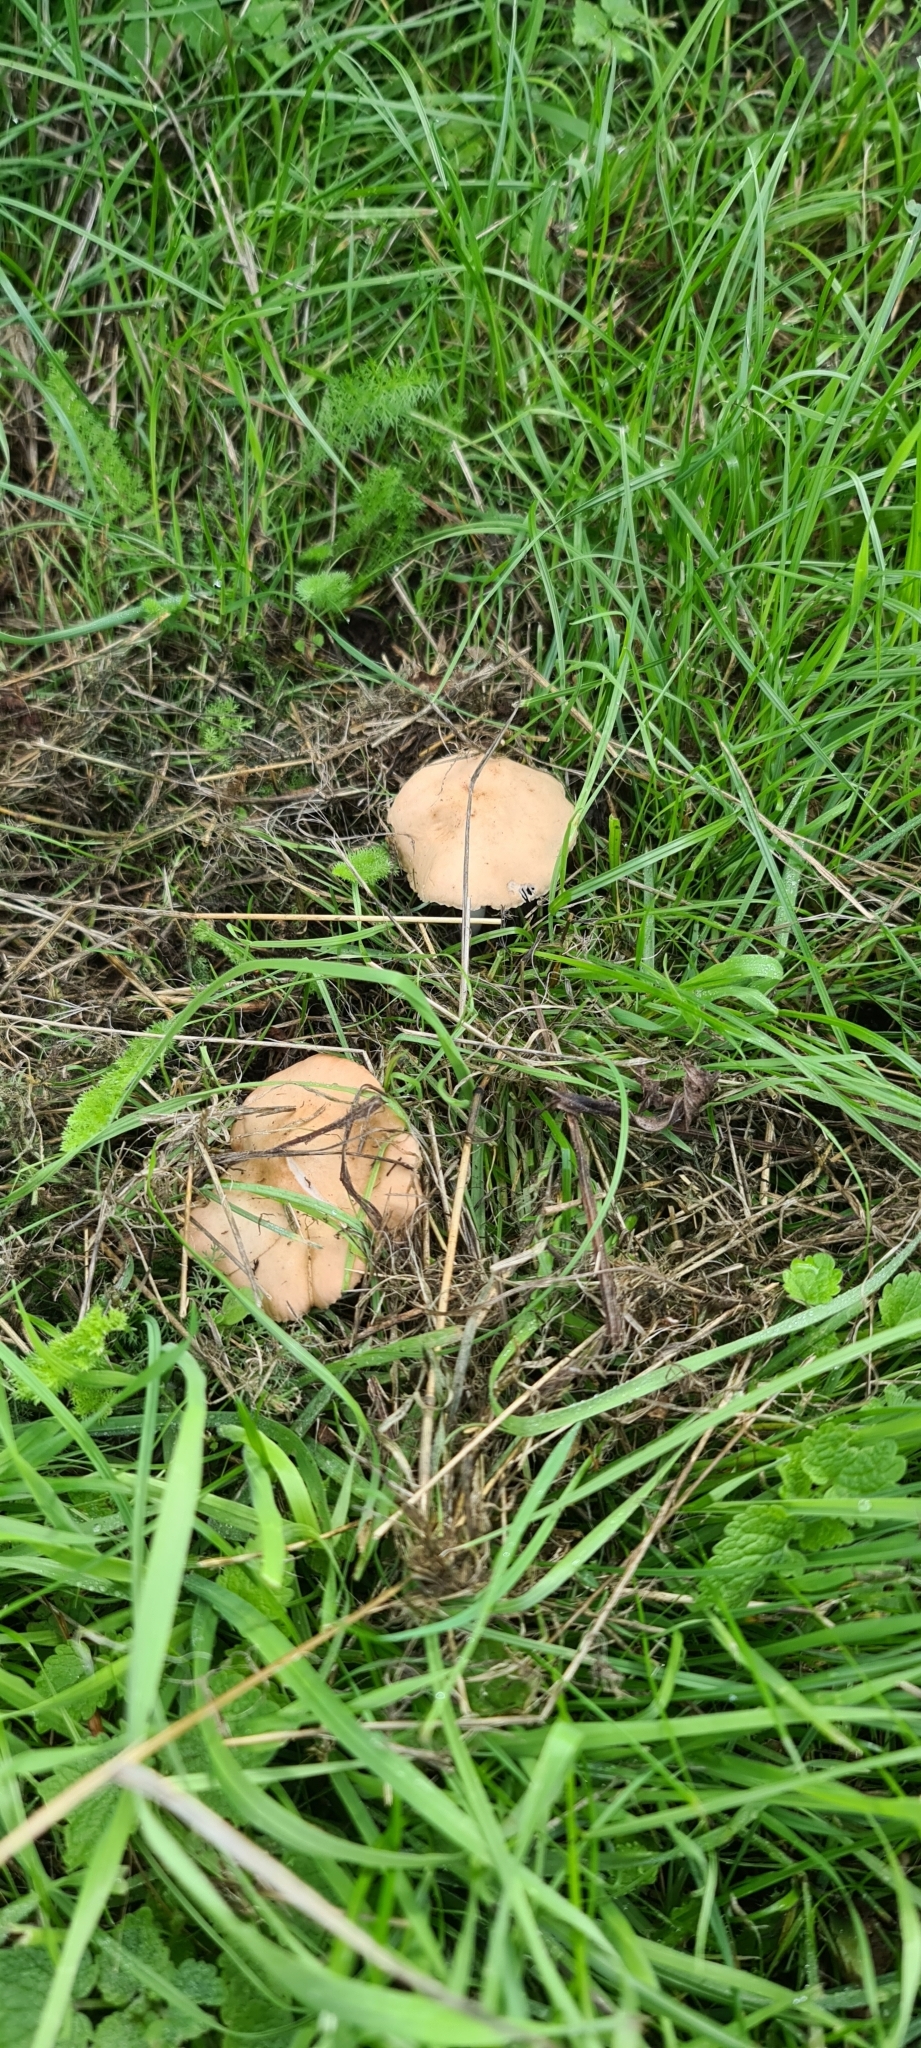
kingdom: Fungi
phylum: Basidiomycota
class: Agaricomycetes
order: Agaricales
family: Marasmiaceae
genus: Marasmius
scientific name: Marasmius oreades
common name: Fairy ring champignon
